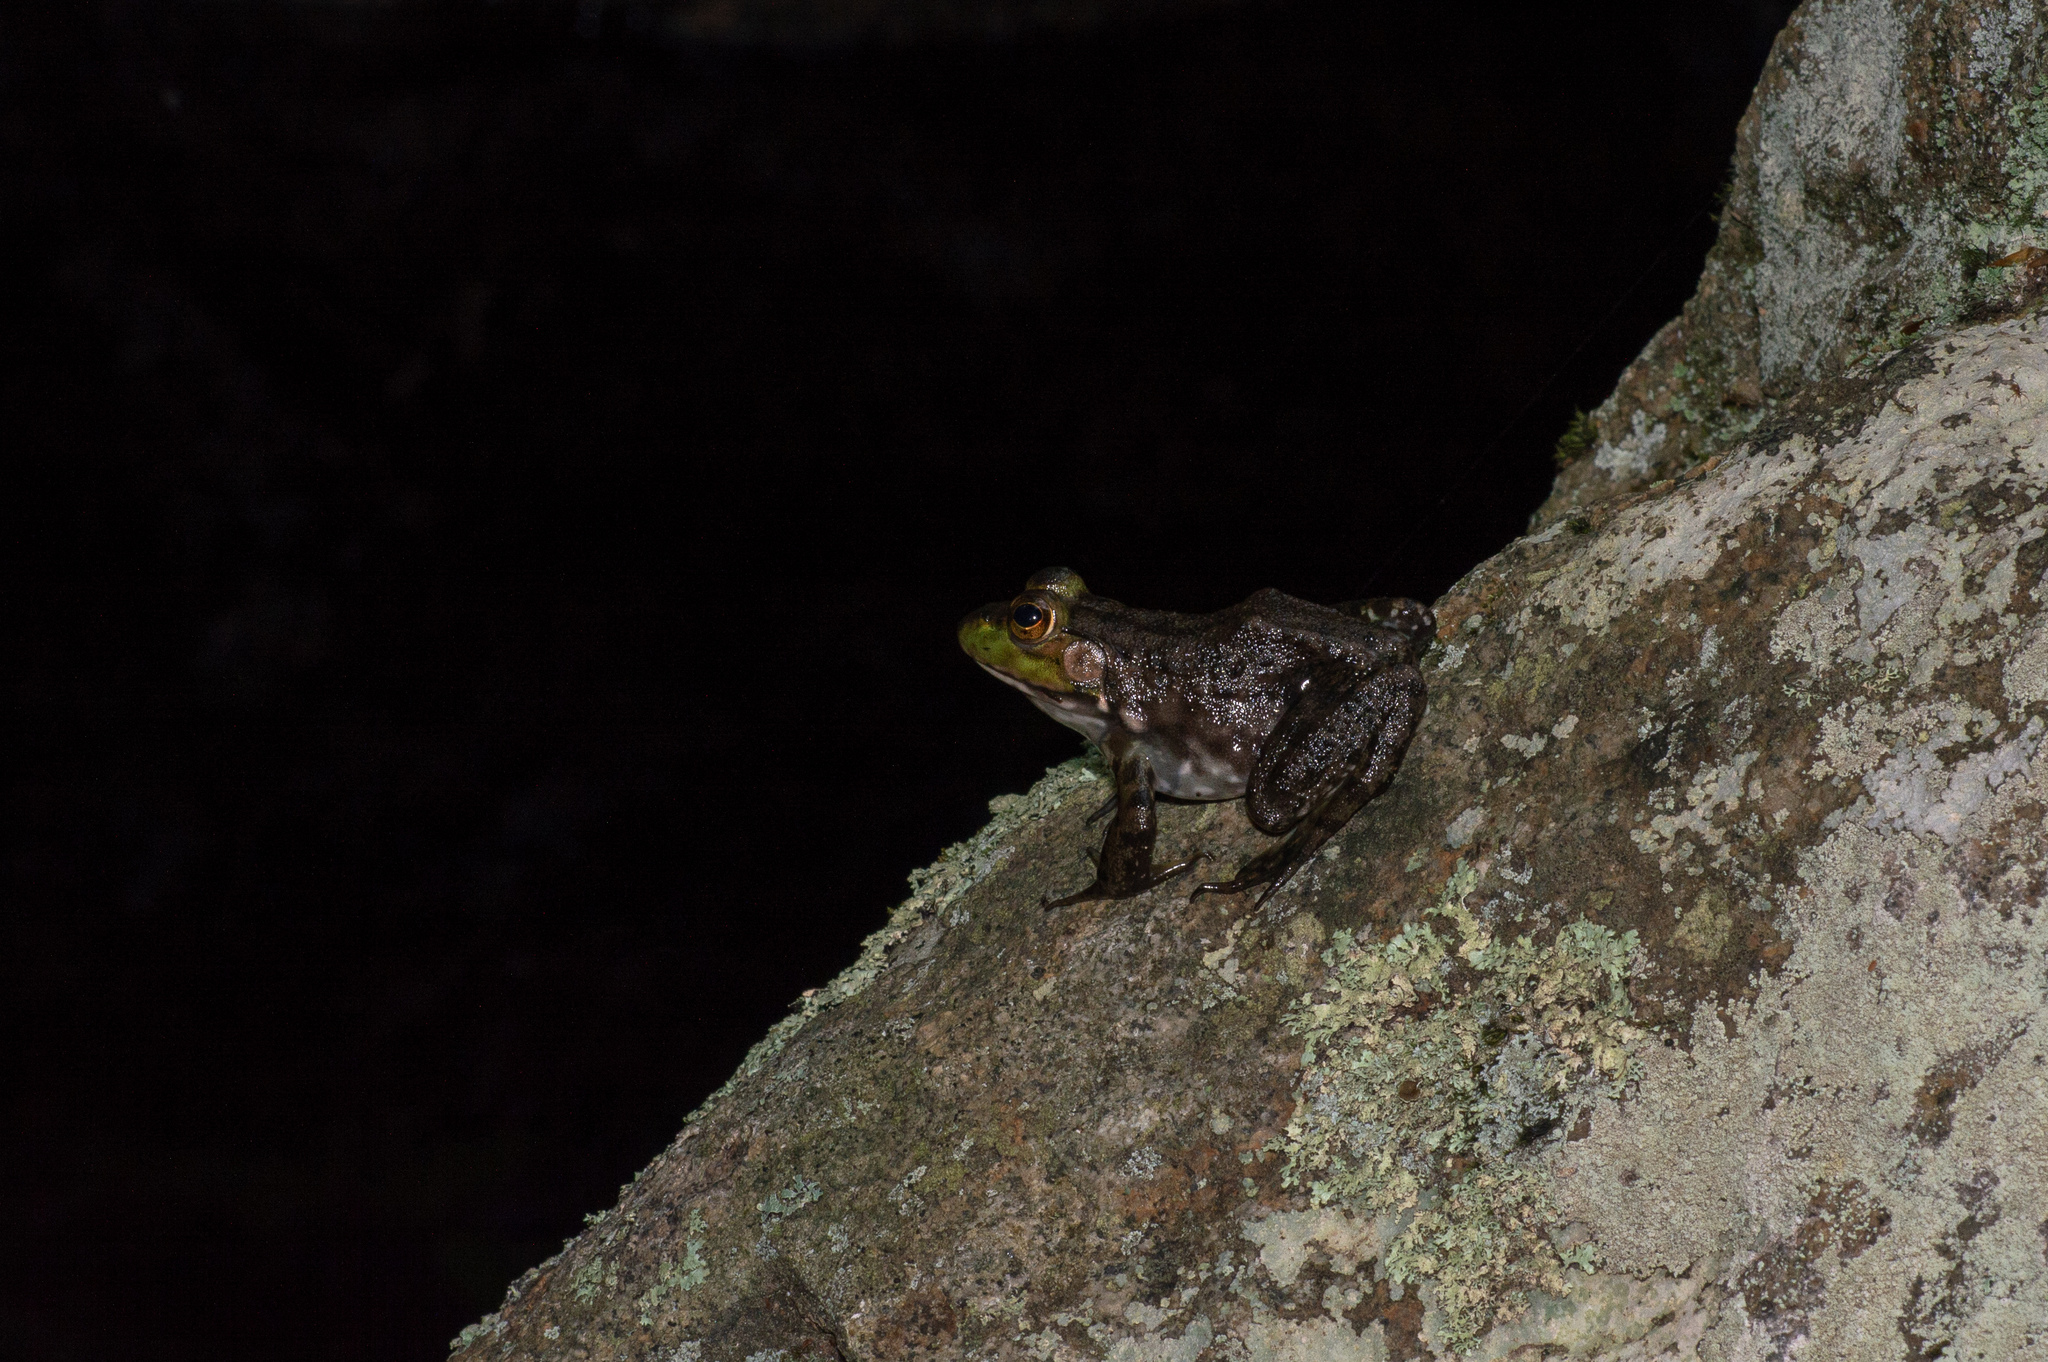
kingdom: Animalia
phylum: Chordata
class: Amphibia
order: Anura
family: Ranidae
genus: Lithobates
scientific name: Lithobates clamitans
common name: Green frog
